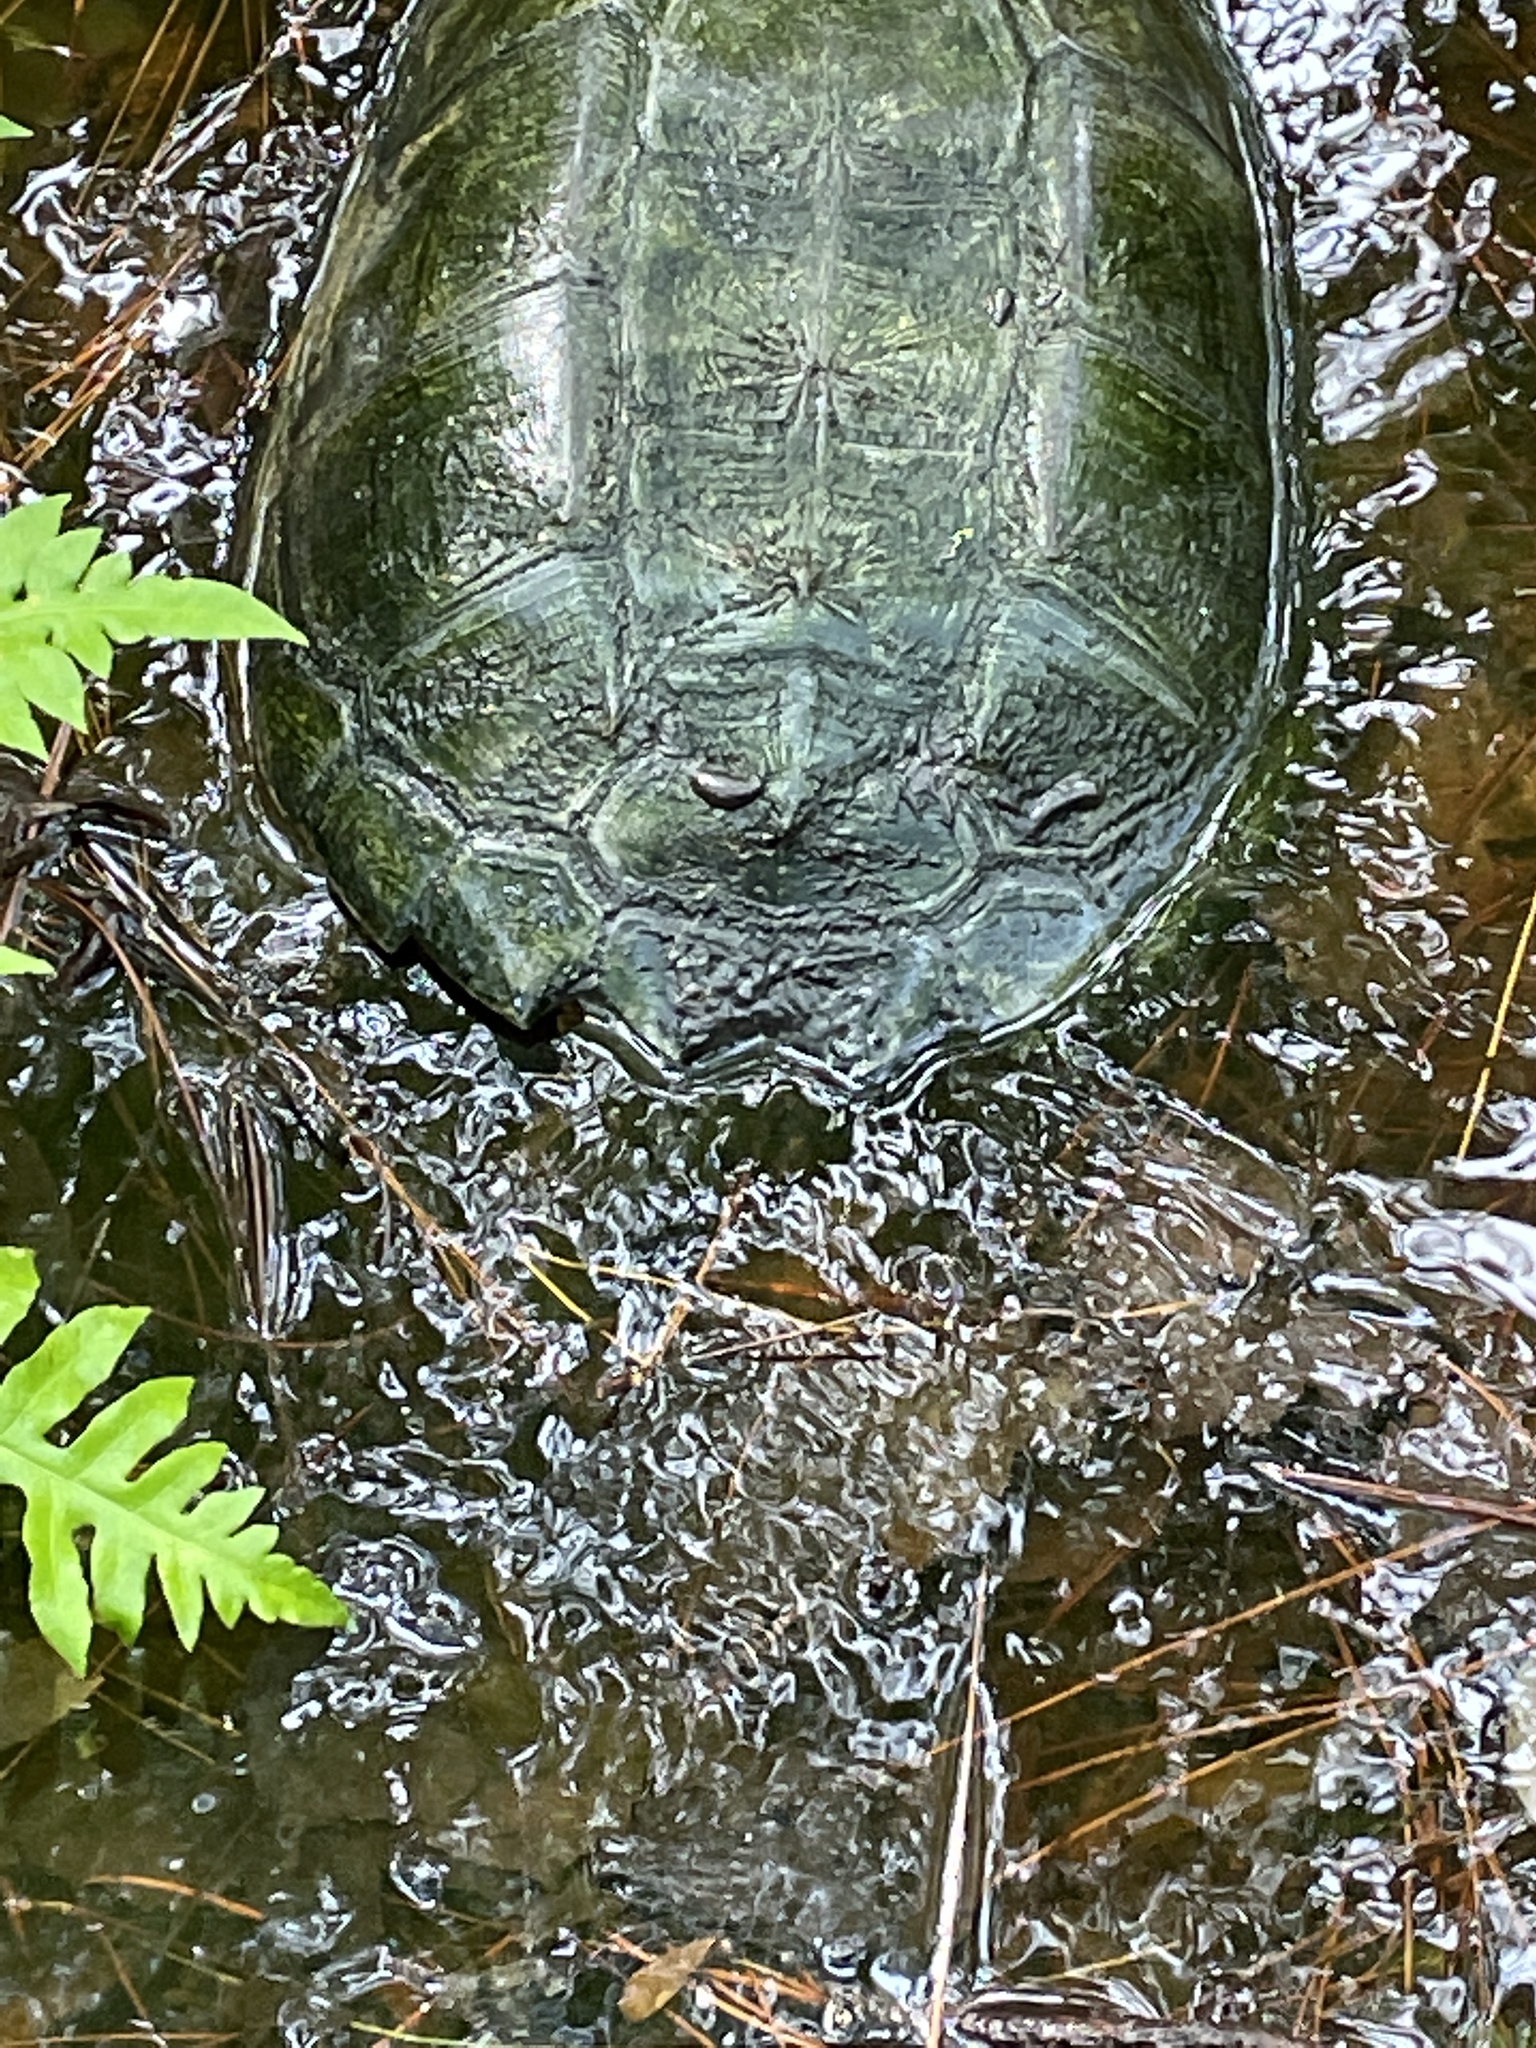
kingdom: Animalia
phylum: Chordata
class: Testudines
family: Chelydridae
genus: Chelydra
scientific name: Chelydra serpentina
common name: Common snapping turtle
